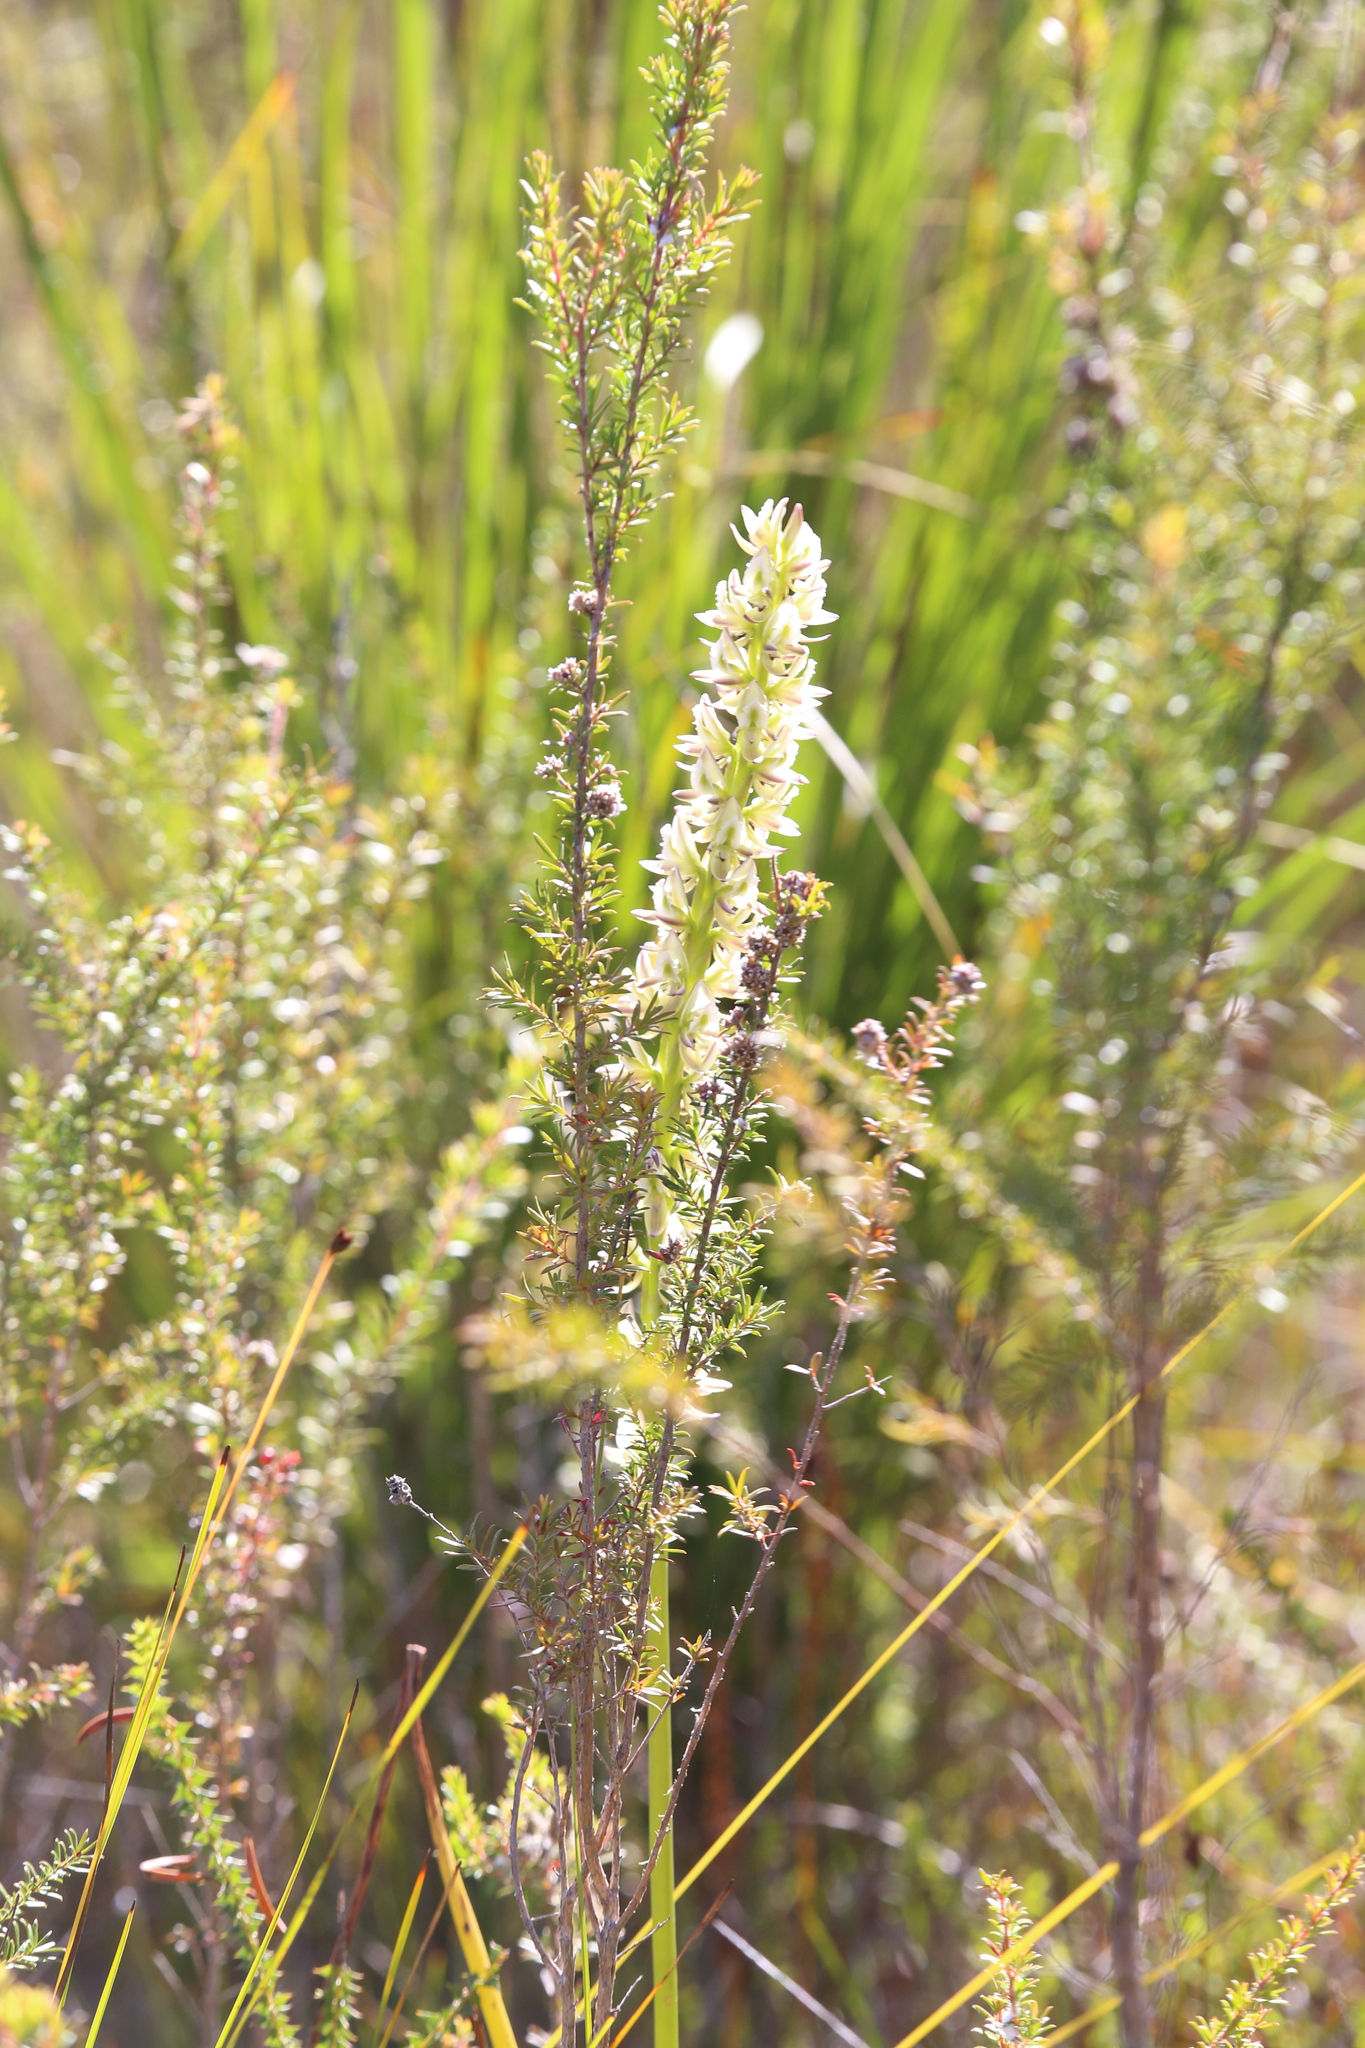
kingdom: Plantae
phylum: Tracheophyta
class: Liliopsida
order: Asparagales
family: Orchidaceae
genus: Prasophyllum
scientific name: Prasophyllum brownii
